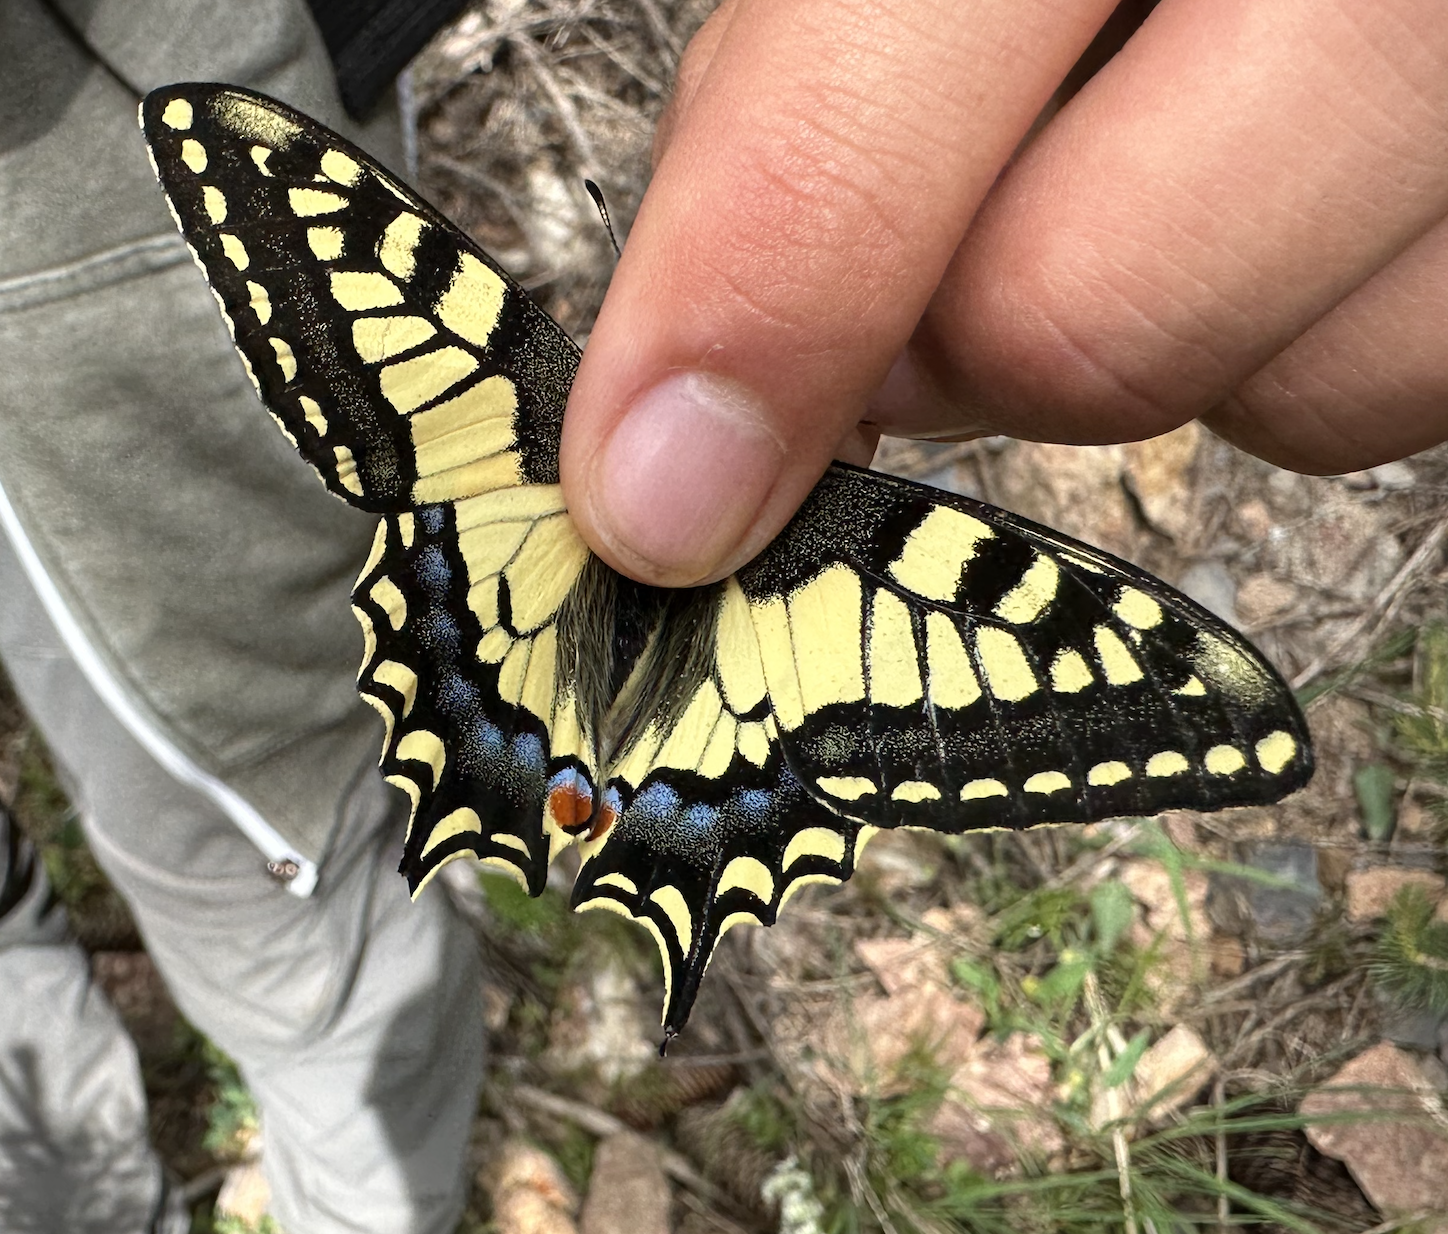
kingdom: Animalia
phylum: Arthropoda
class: Insecta
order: Lepidoptera
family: Papilionidae
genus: Papilio
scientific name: Papilio machaon
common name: Swallowtail
